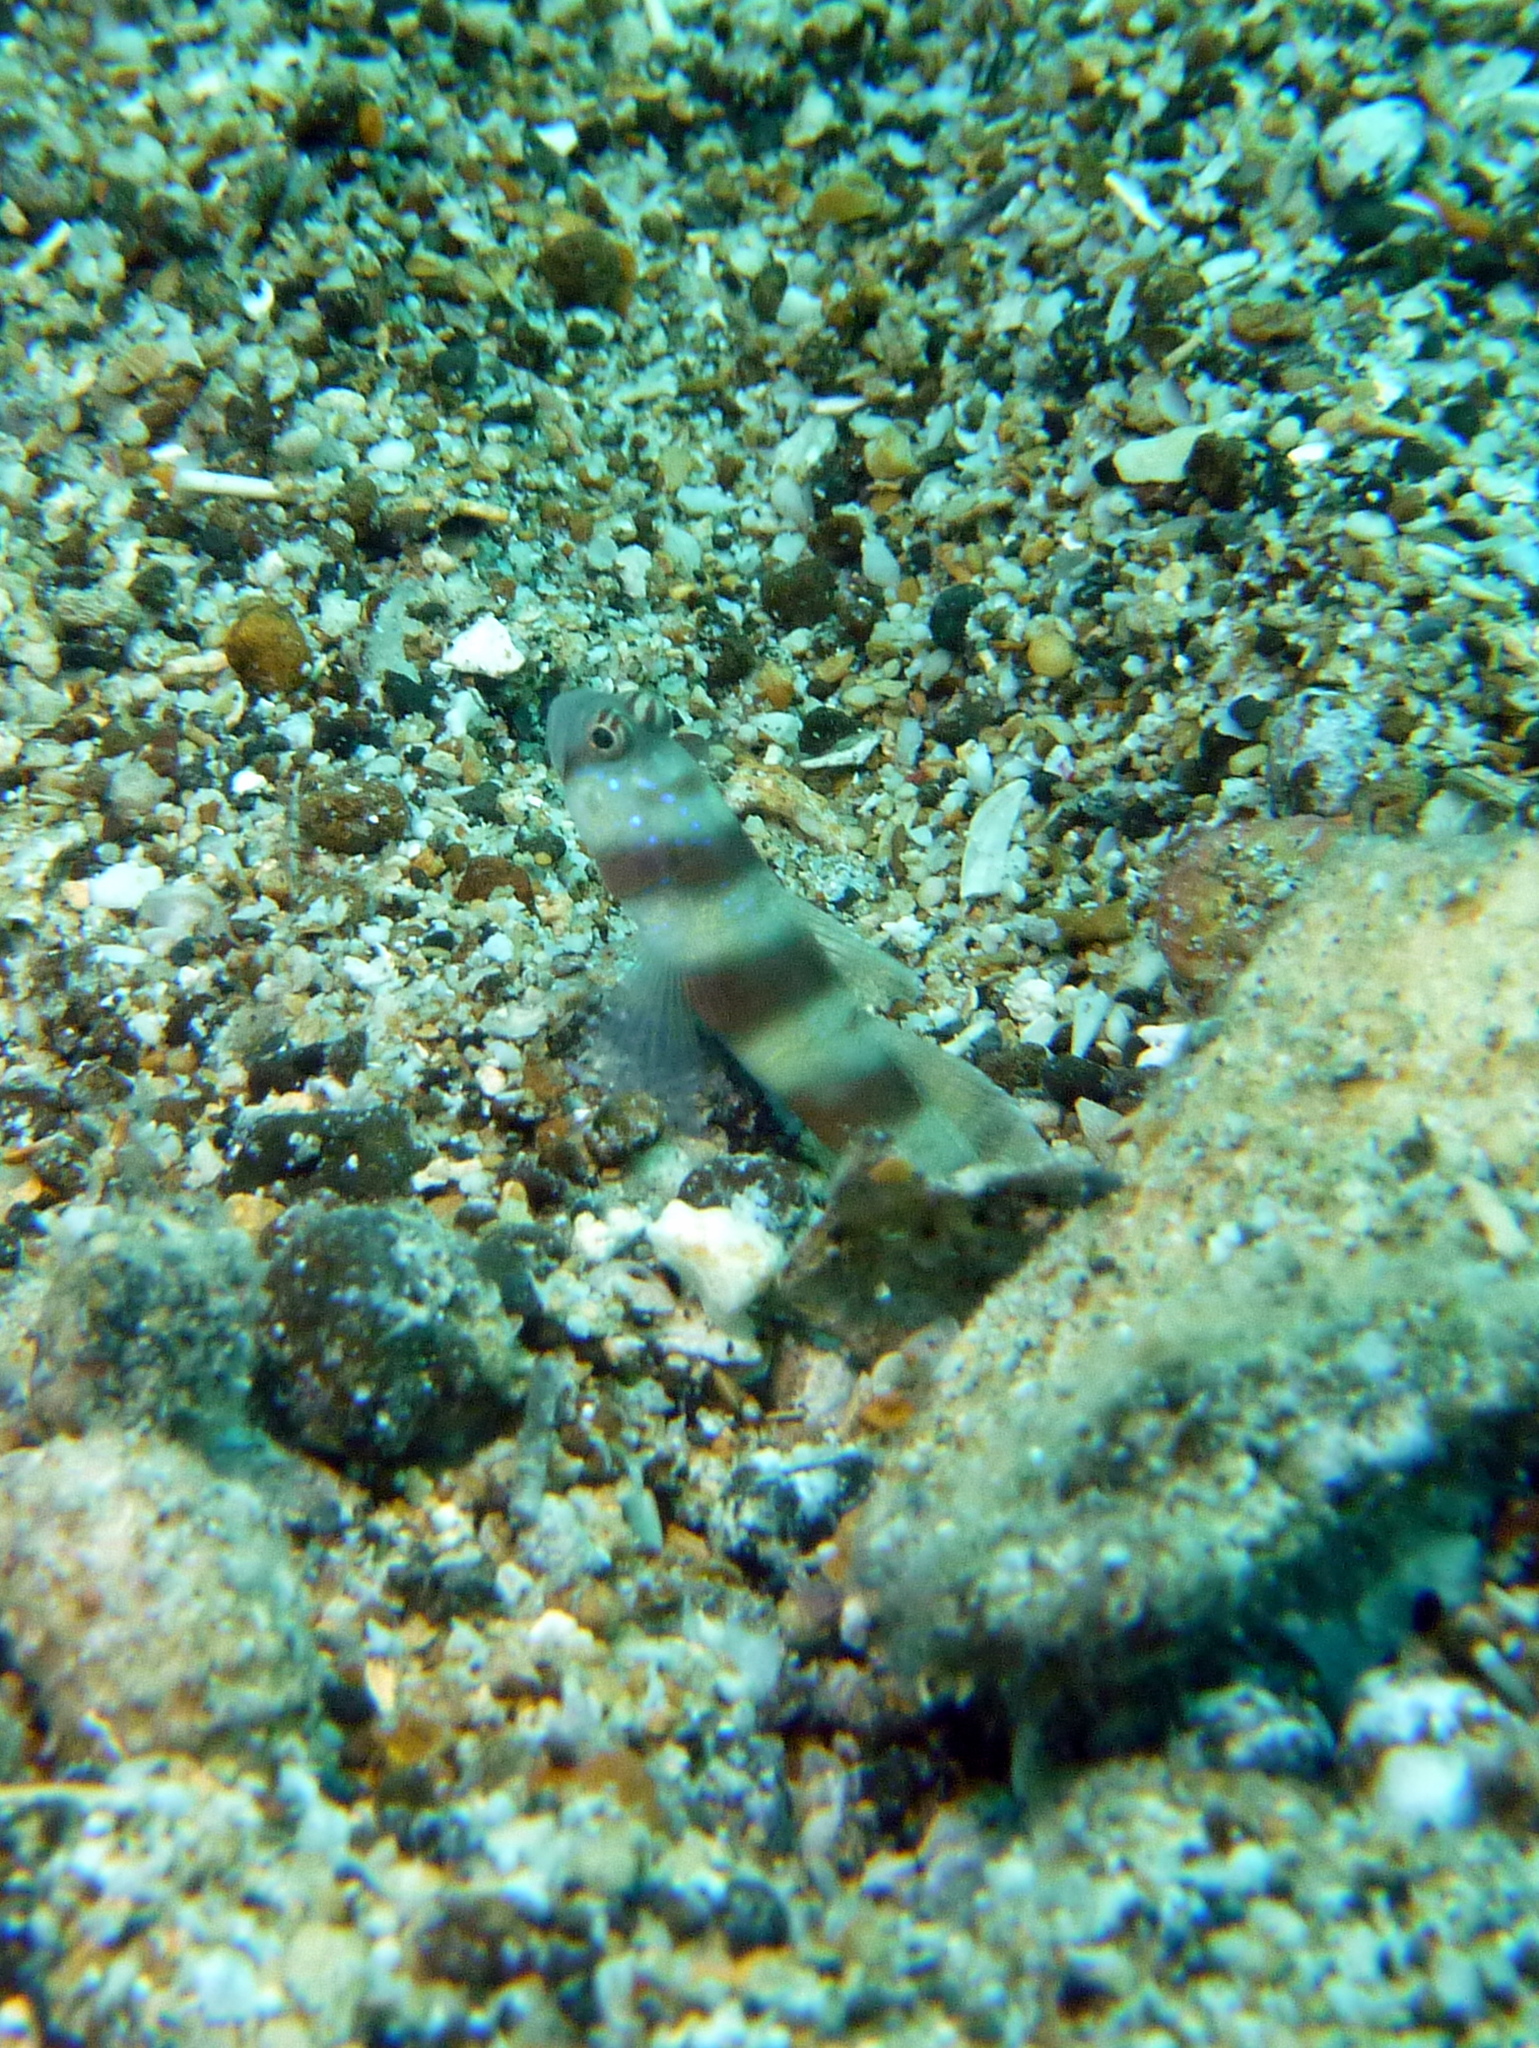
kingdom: Animalia
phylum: Chordata
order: Perciformes
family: Gobiidae
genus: Amblyeleotris
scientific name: Amblyeleotris steinitzi
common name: Steinitz' prawn-goby
